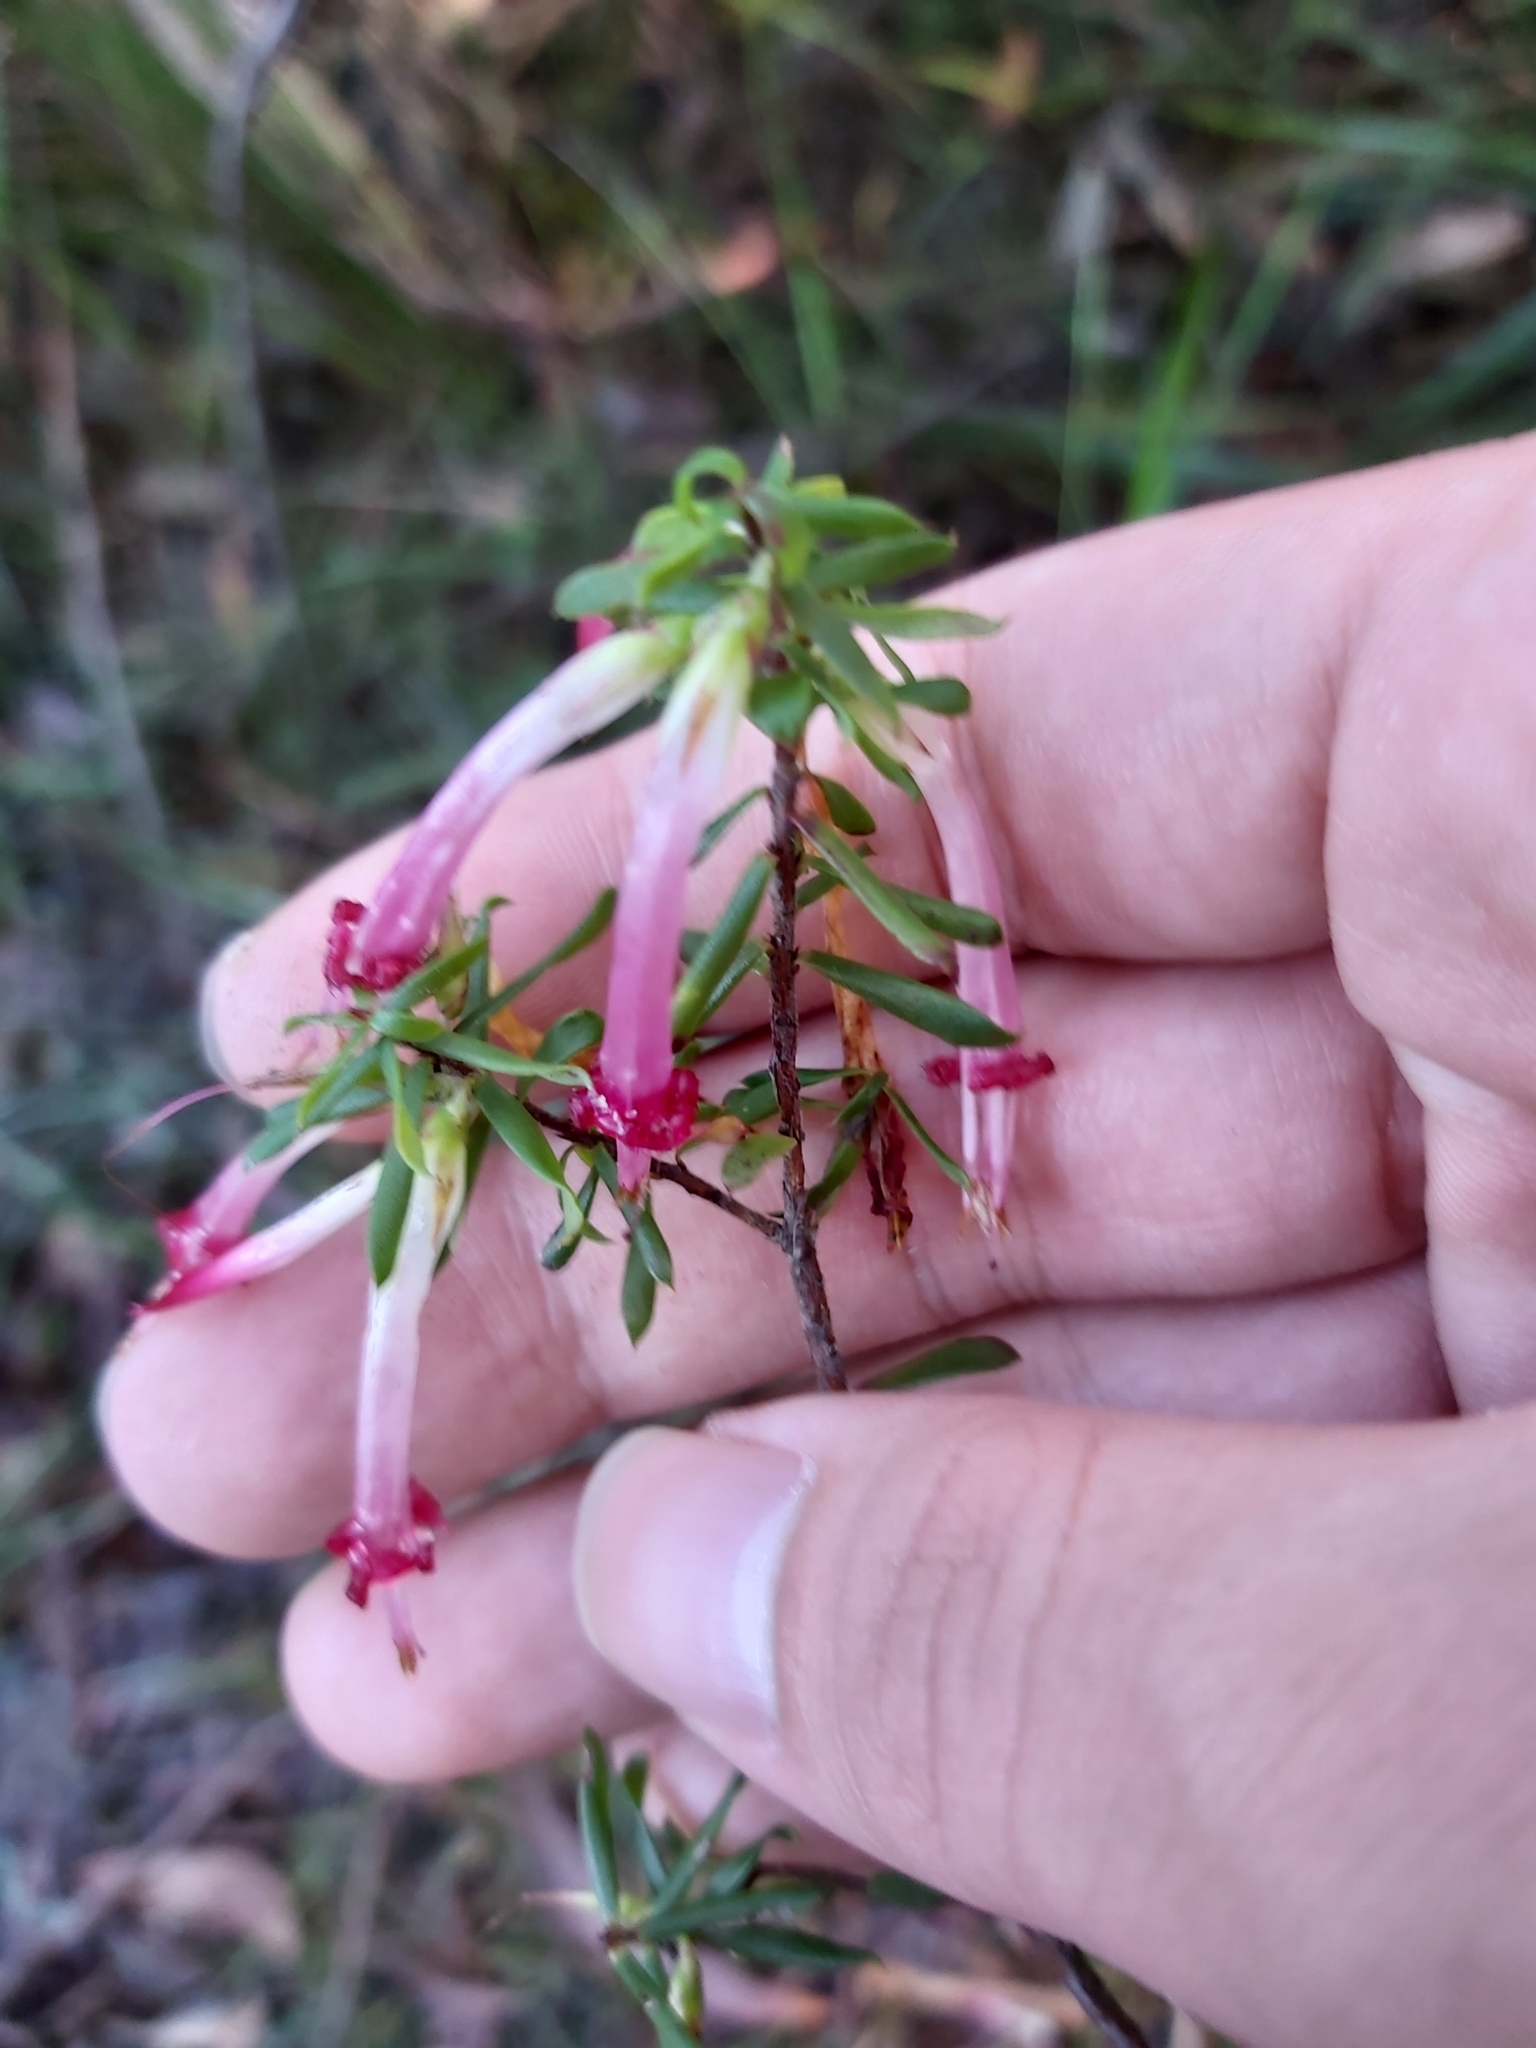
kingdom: Plantae
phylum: Tracheophyta
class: Magnoliopsida
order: Ericales
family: Ericaceae
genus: Styphelia
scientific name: Styphelia tubiflora
